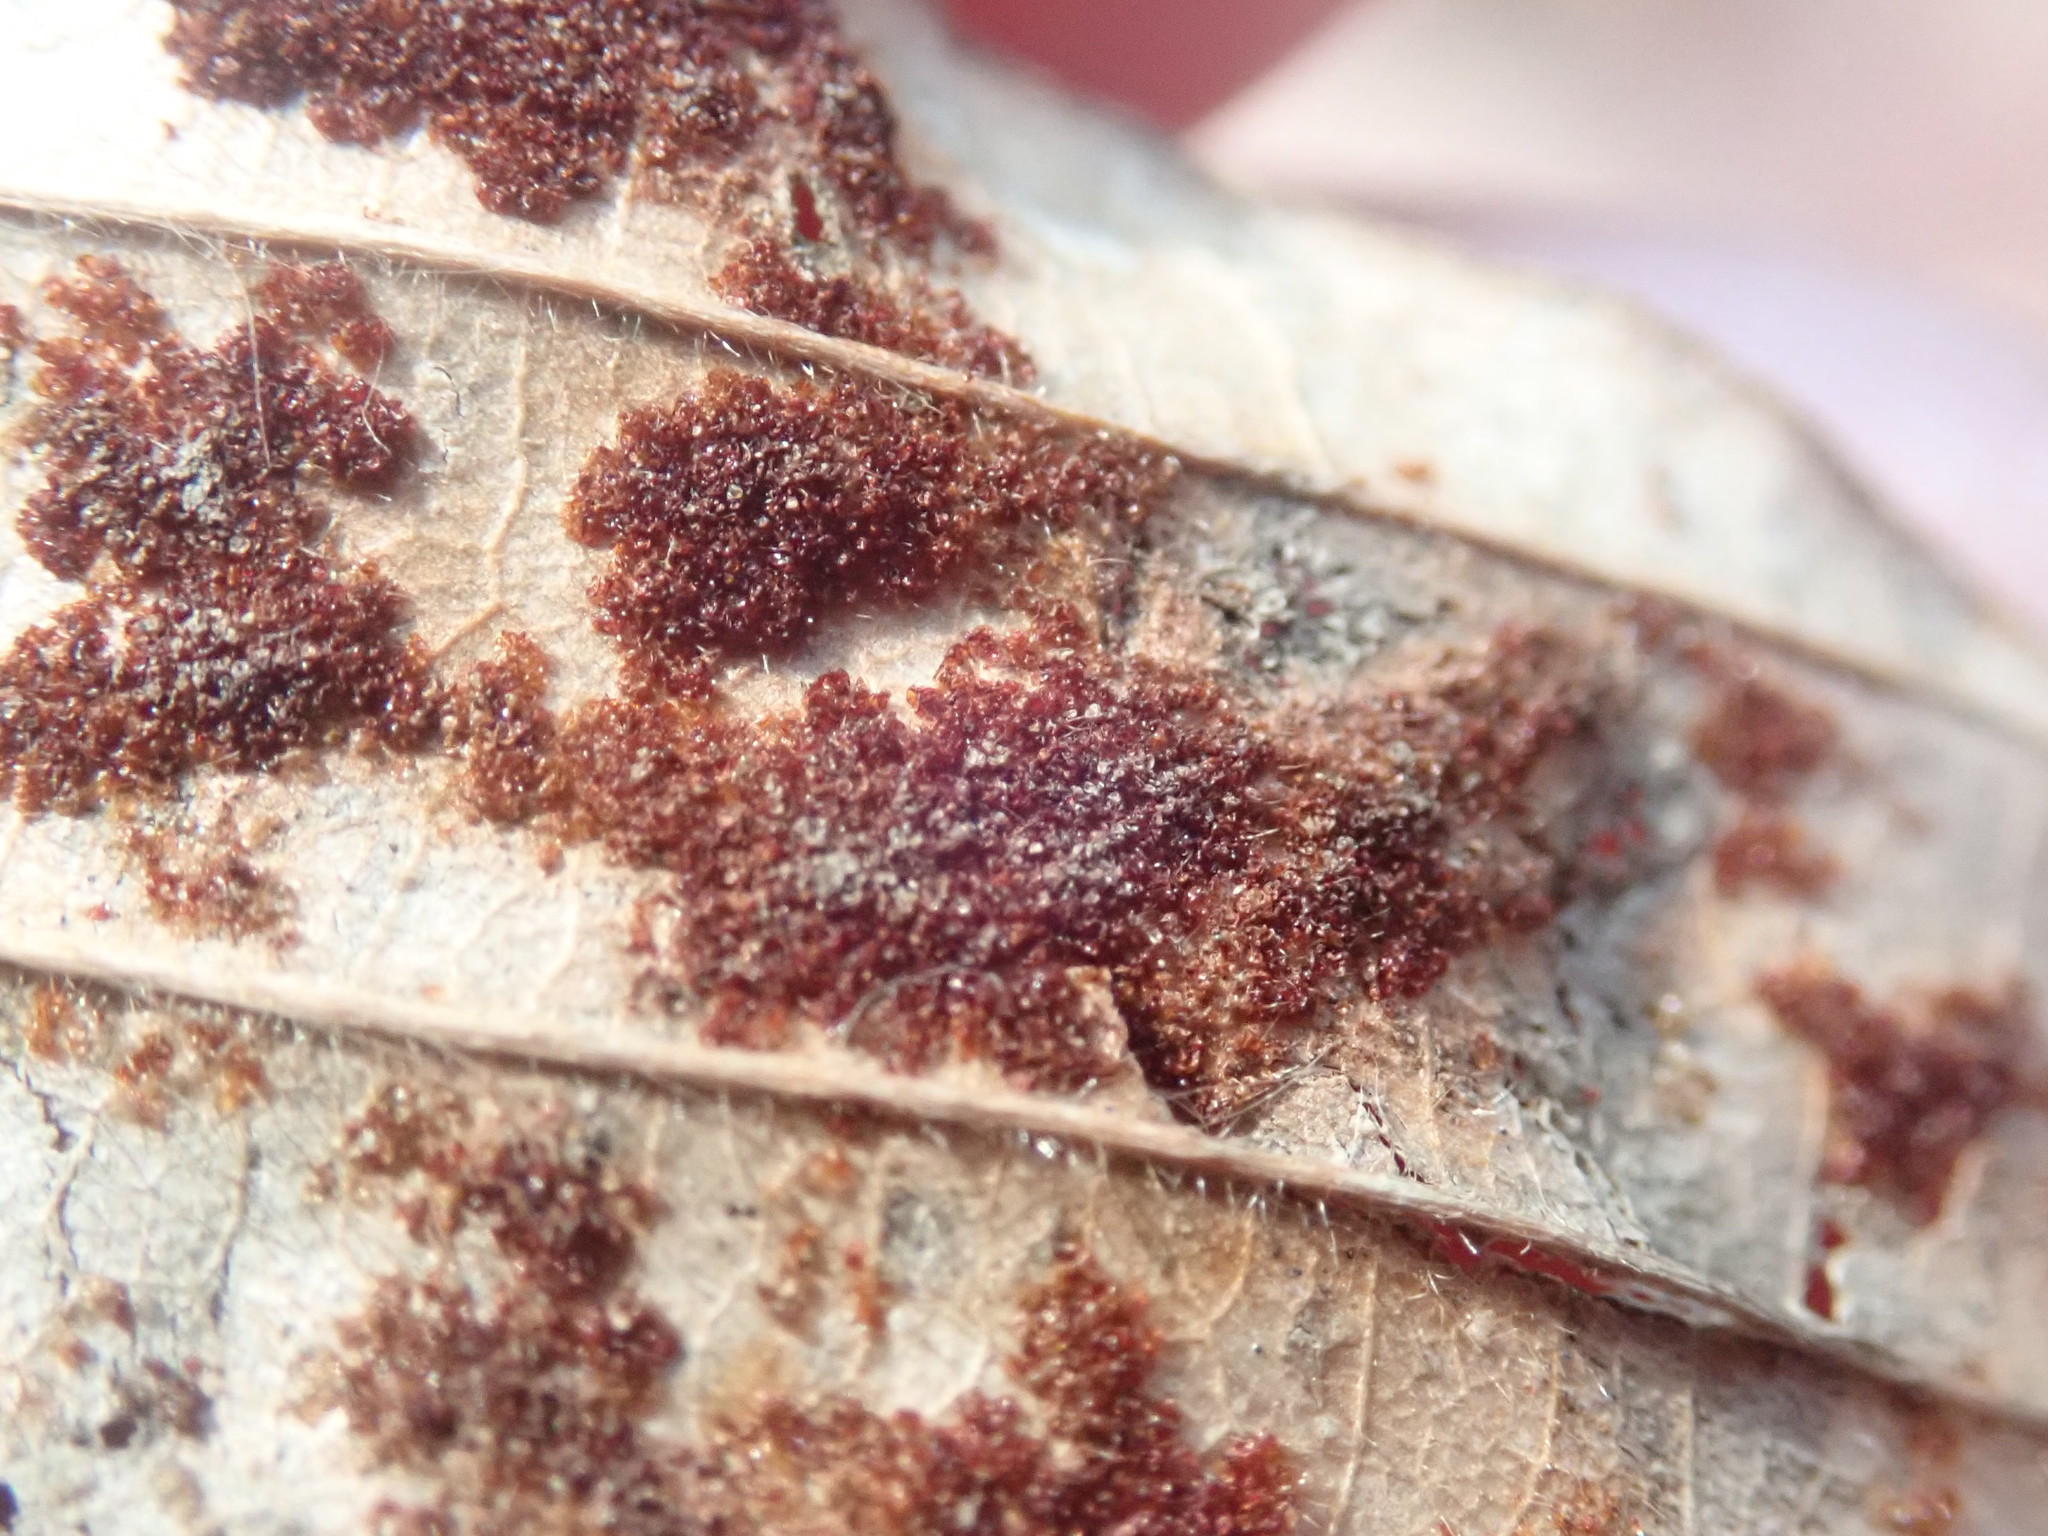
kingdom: Animalia
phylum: Arthropoda
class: Arachnida
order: Trombidiformes
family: Eriophyidae
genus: Acalitus
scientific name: Acalitus
